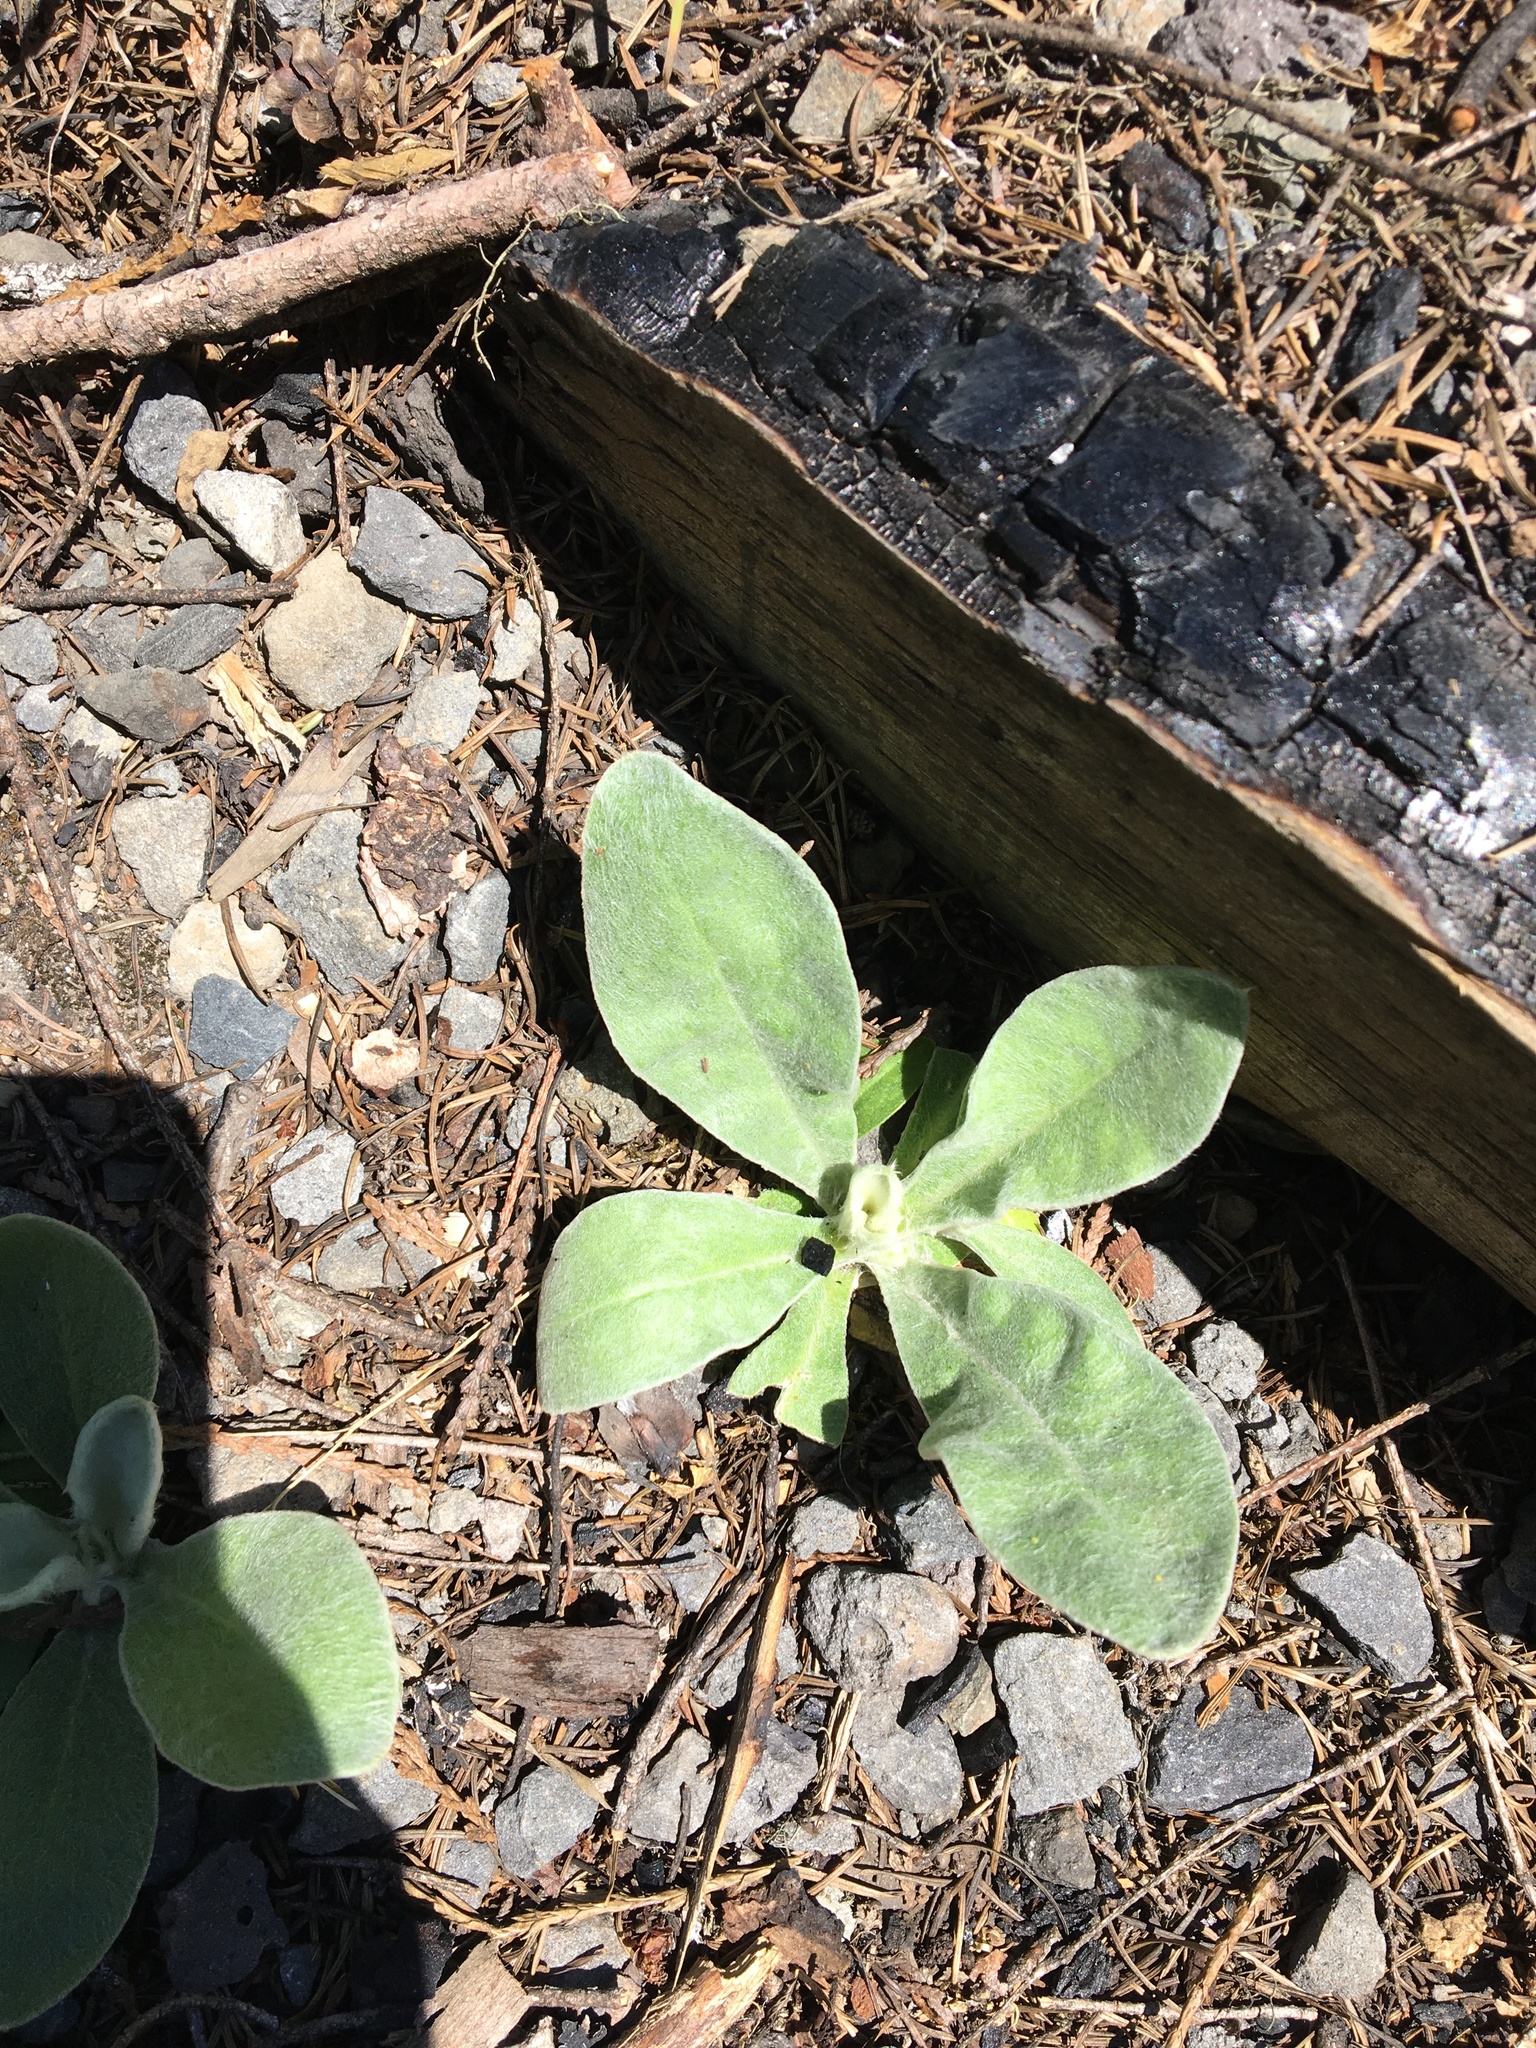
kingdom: Plantae
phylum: Tracheophyta
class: Magnoliopsida
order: Caryophyllales
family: Caryophyllaceae
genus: Silene
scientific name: Silene coronaria
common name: Rose campion
